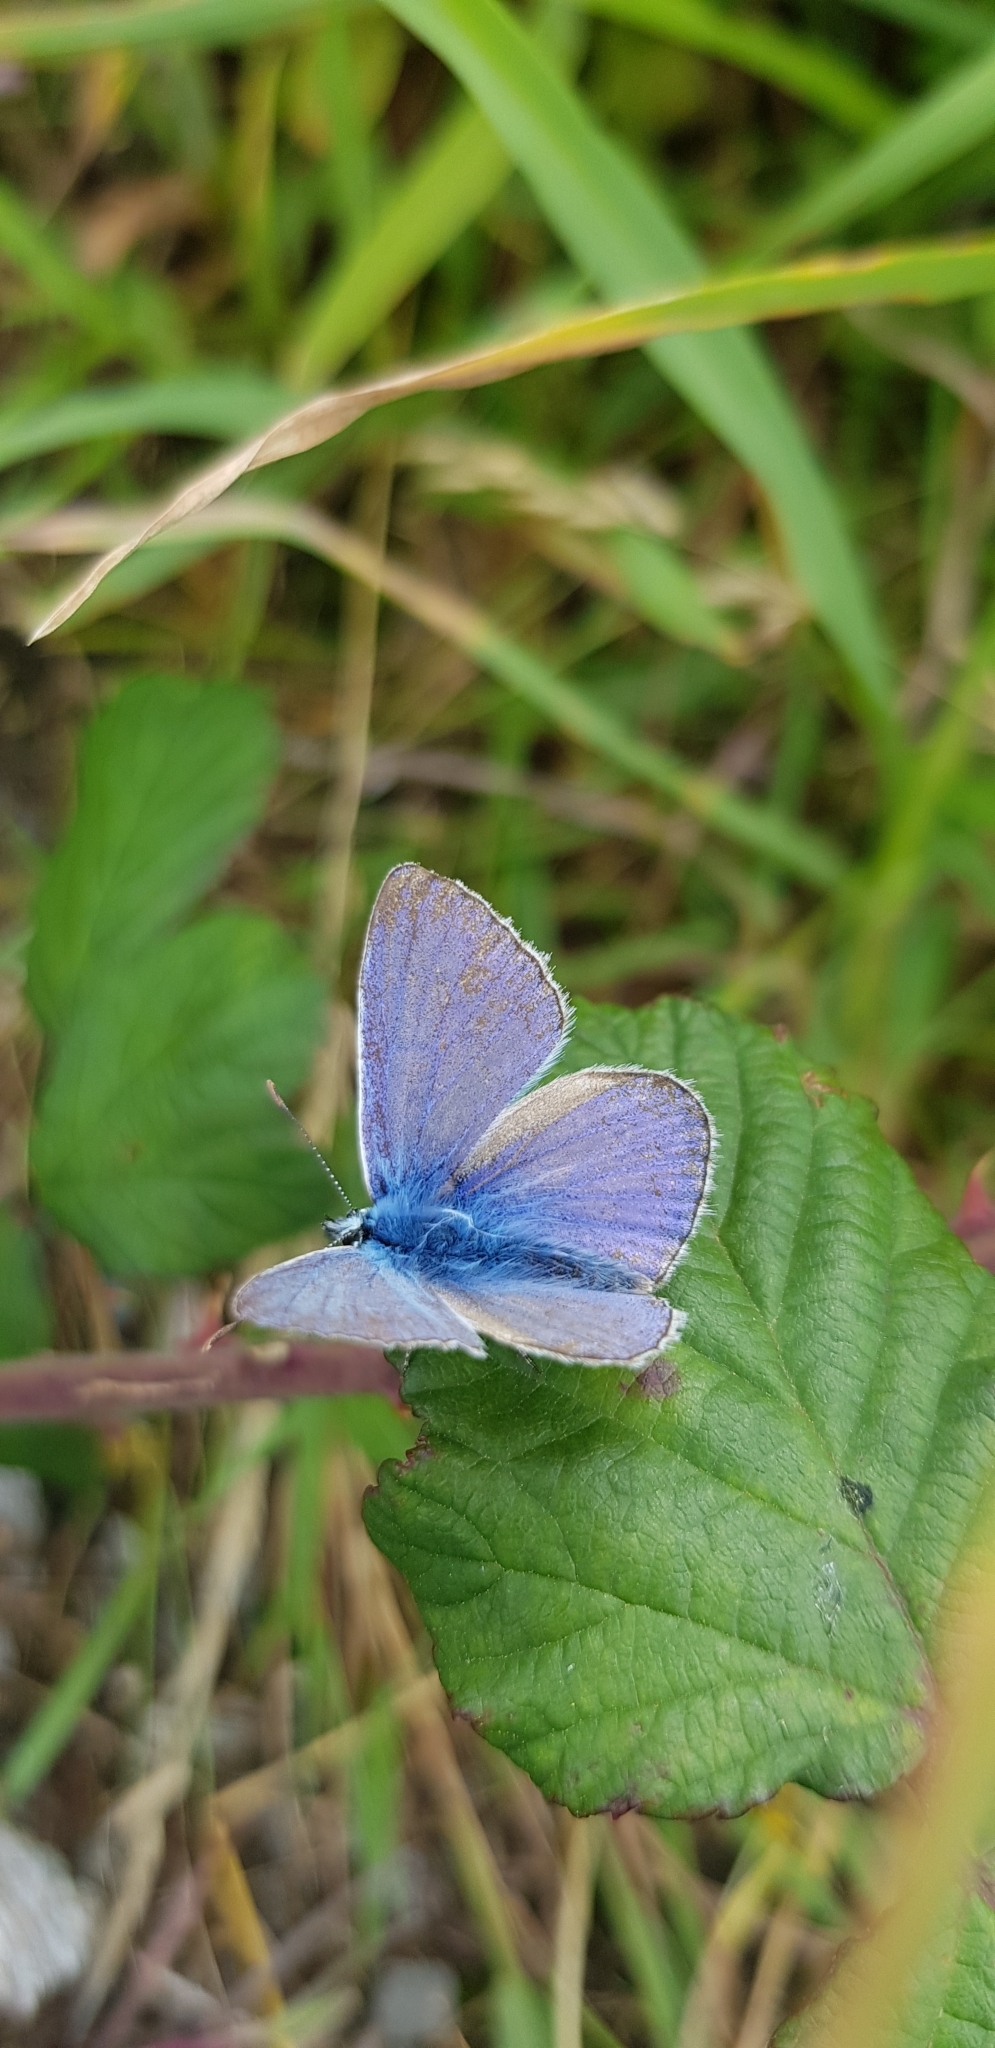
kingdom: Animalia
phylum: Arthropoda
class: Insecta
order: Lepidoptera
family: Lycaenidae
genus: Polyommatus
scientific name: Polyommatus icarus
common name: Common blue
